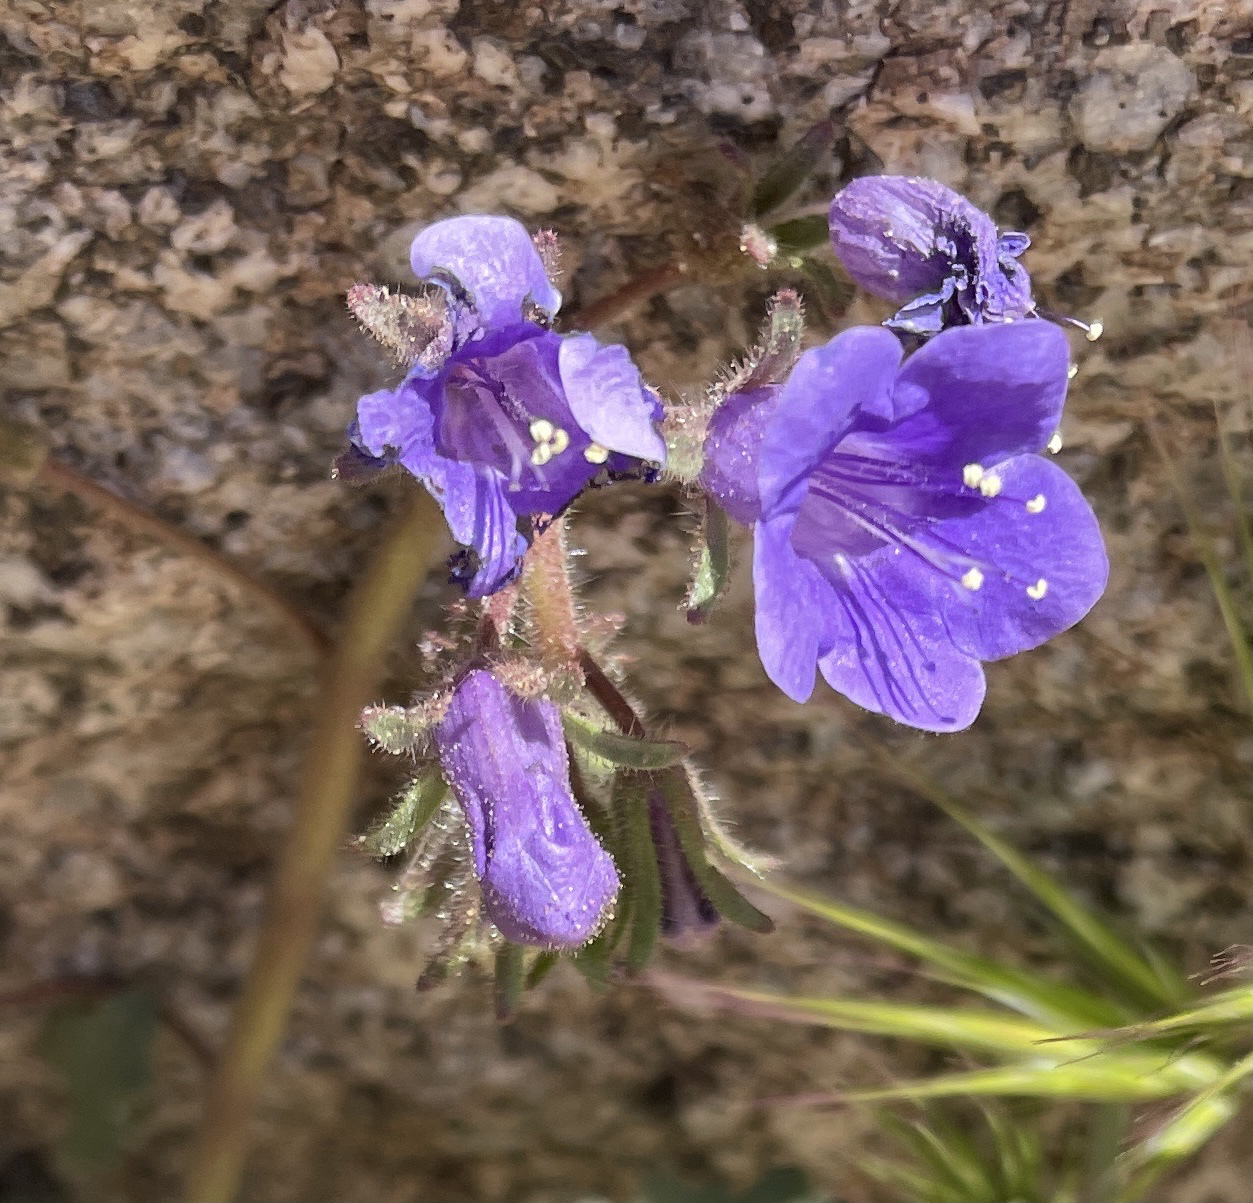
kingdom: Plantae
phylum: Tracheophyta
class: Magnoliopsida
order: Boraginales
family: Hydrophyllaceae
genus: Phacelia
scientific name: Phacelia minor
